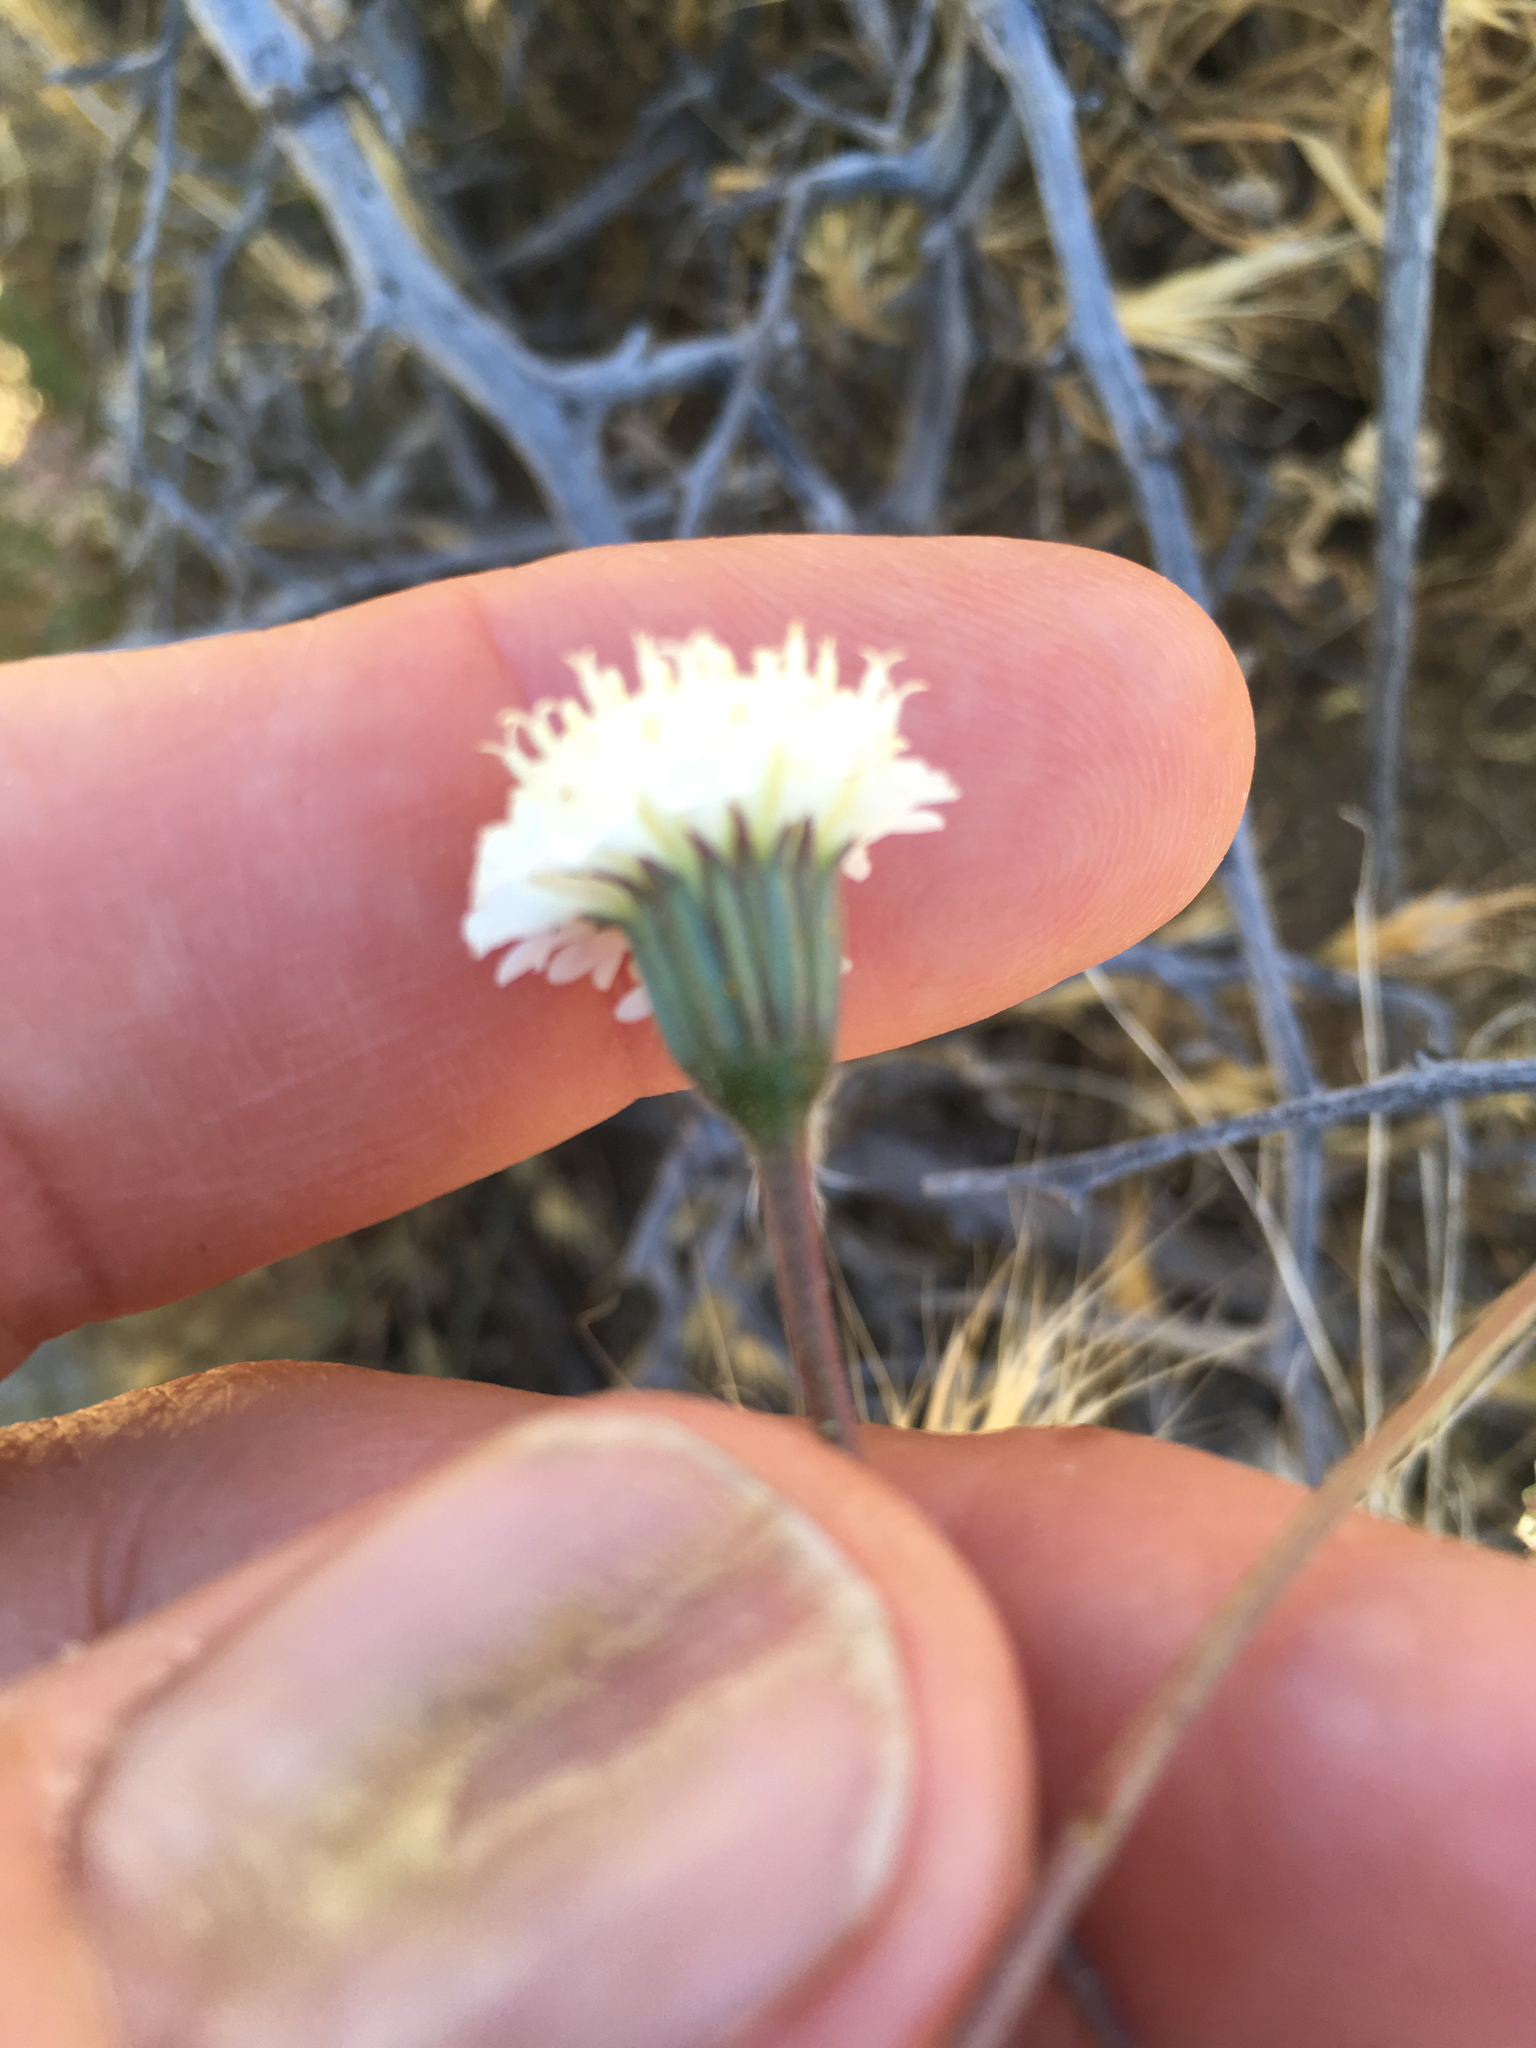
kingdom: Plantae
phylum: Tracheophyta
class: Magnoliopsida
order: Asterales
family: Asteraceae
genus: Chaenactis
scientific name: Chaenactis fremontii
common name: Fremont pincushion
